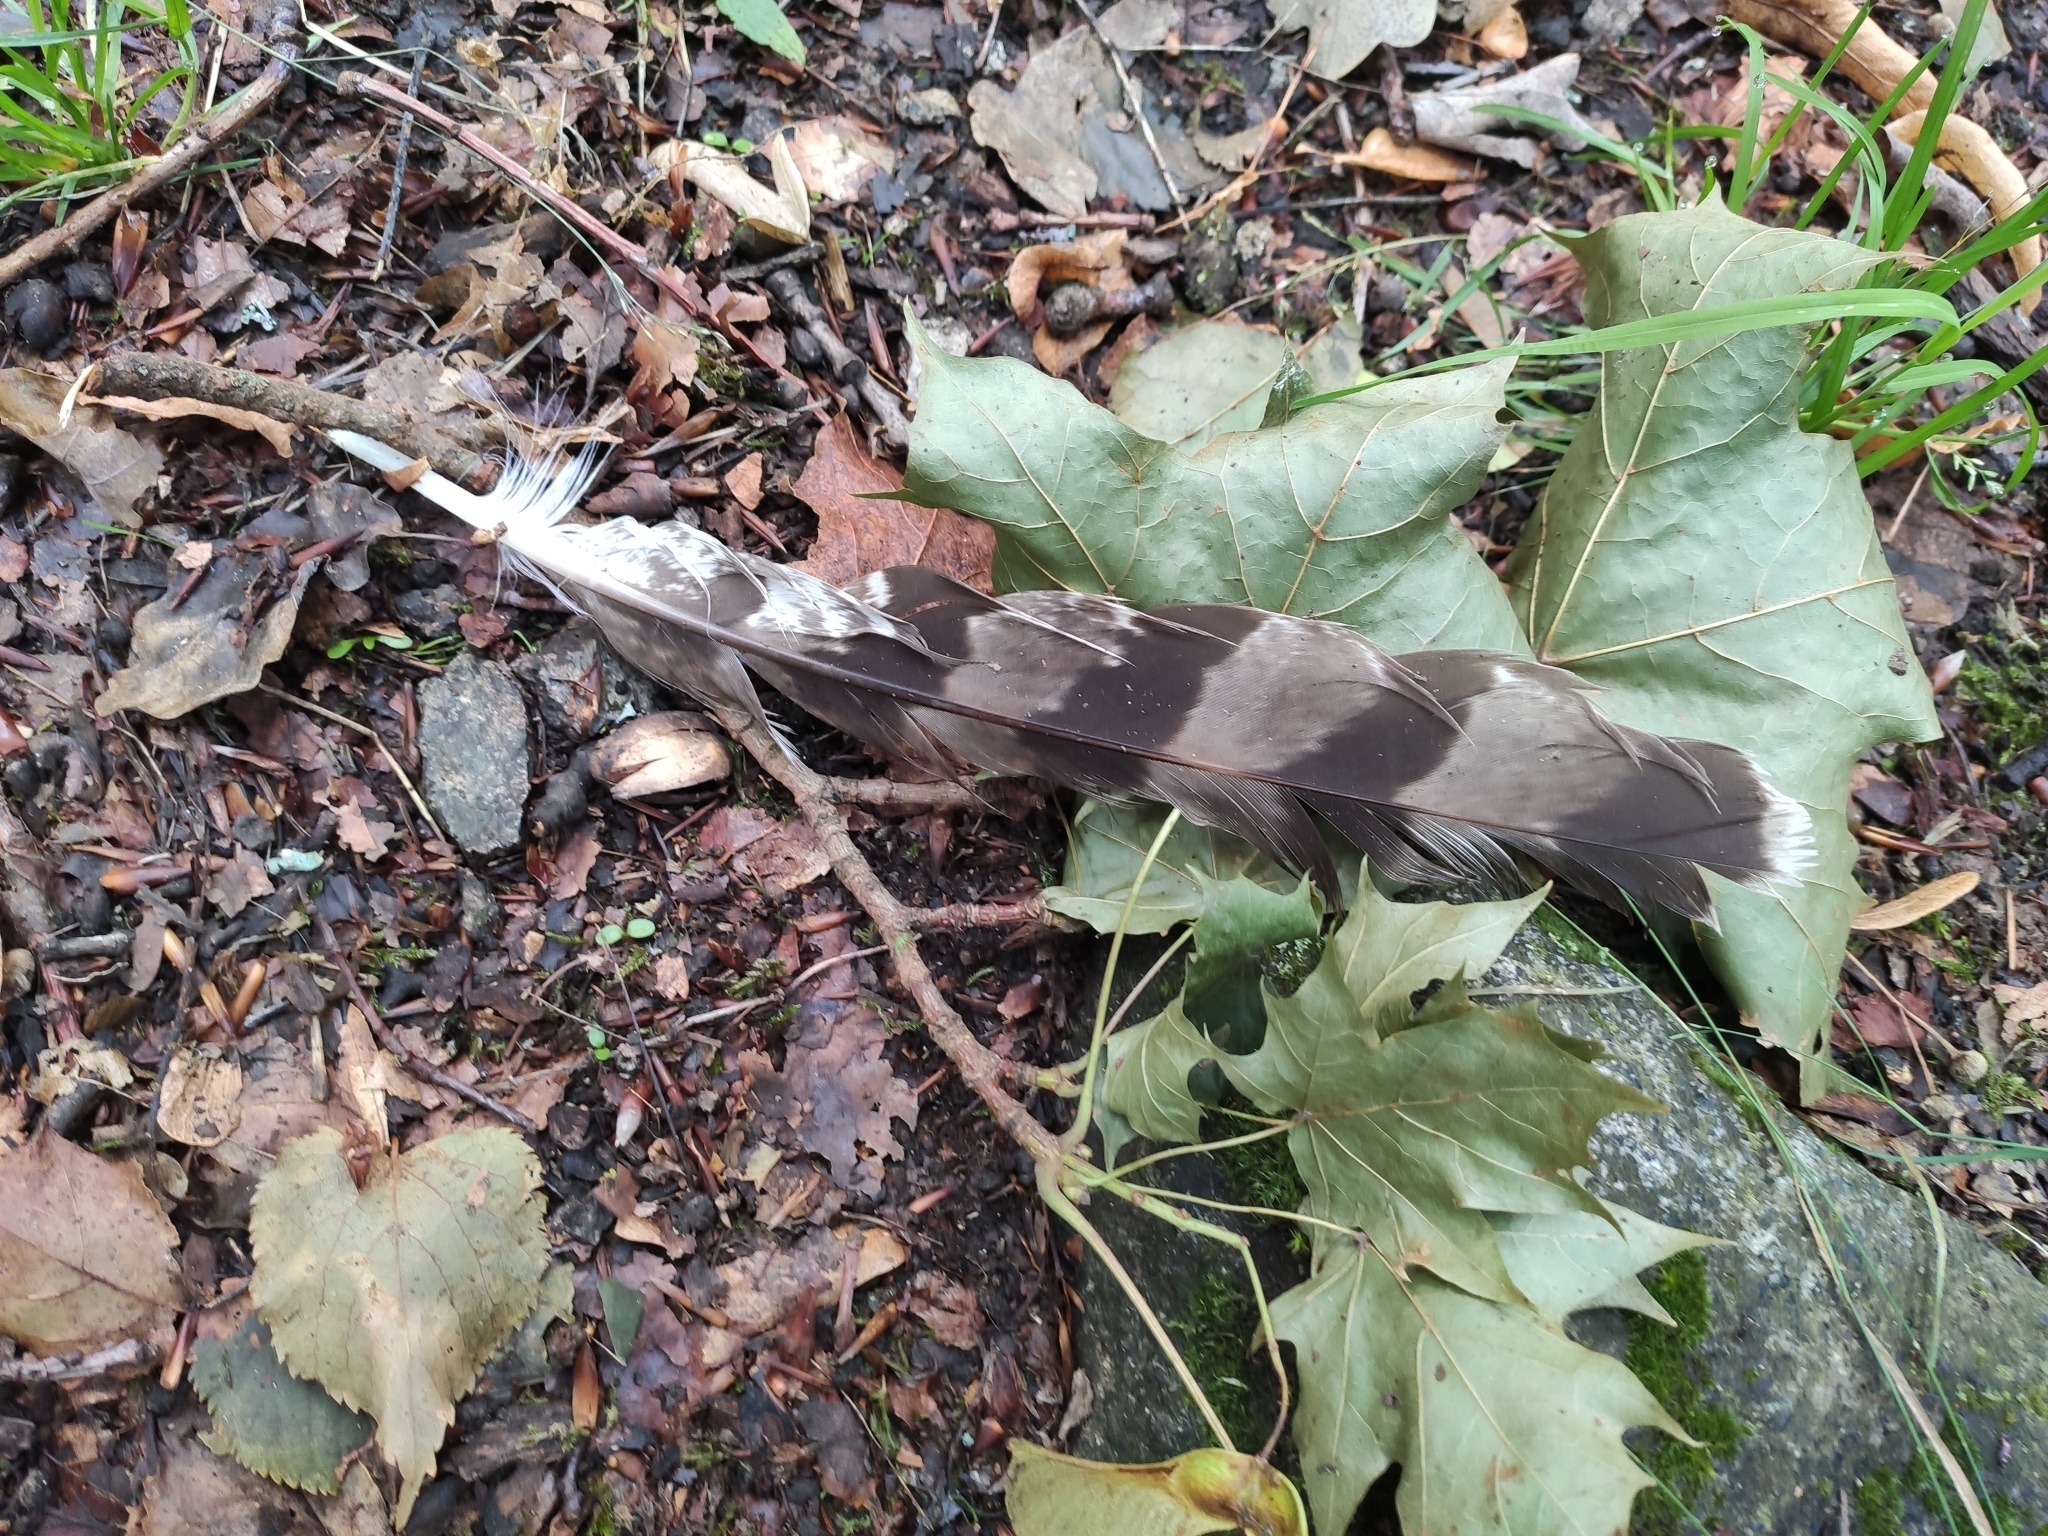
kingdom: Animalia
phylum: Chordata
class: Aves
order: Accipitriformes
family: Accipitridae
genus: Accipiter
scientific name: Accipiter gentilis
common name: Northern goshawk
